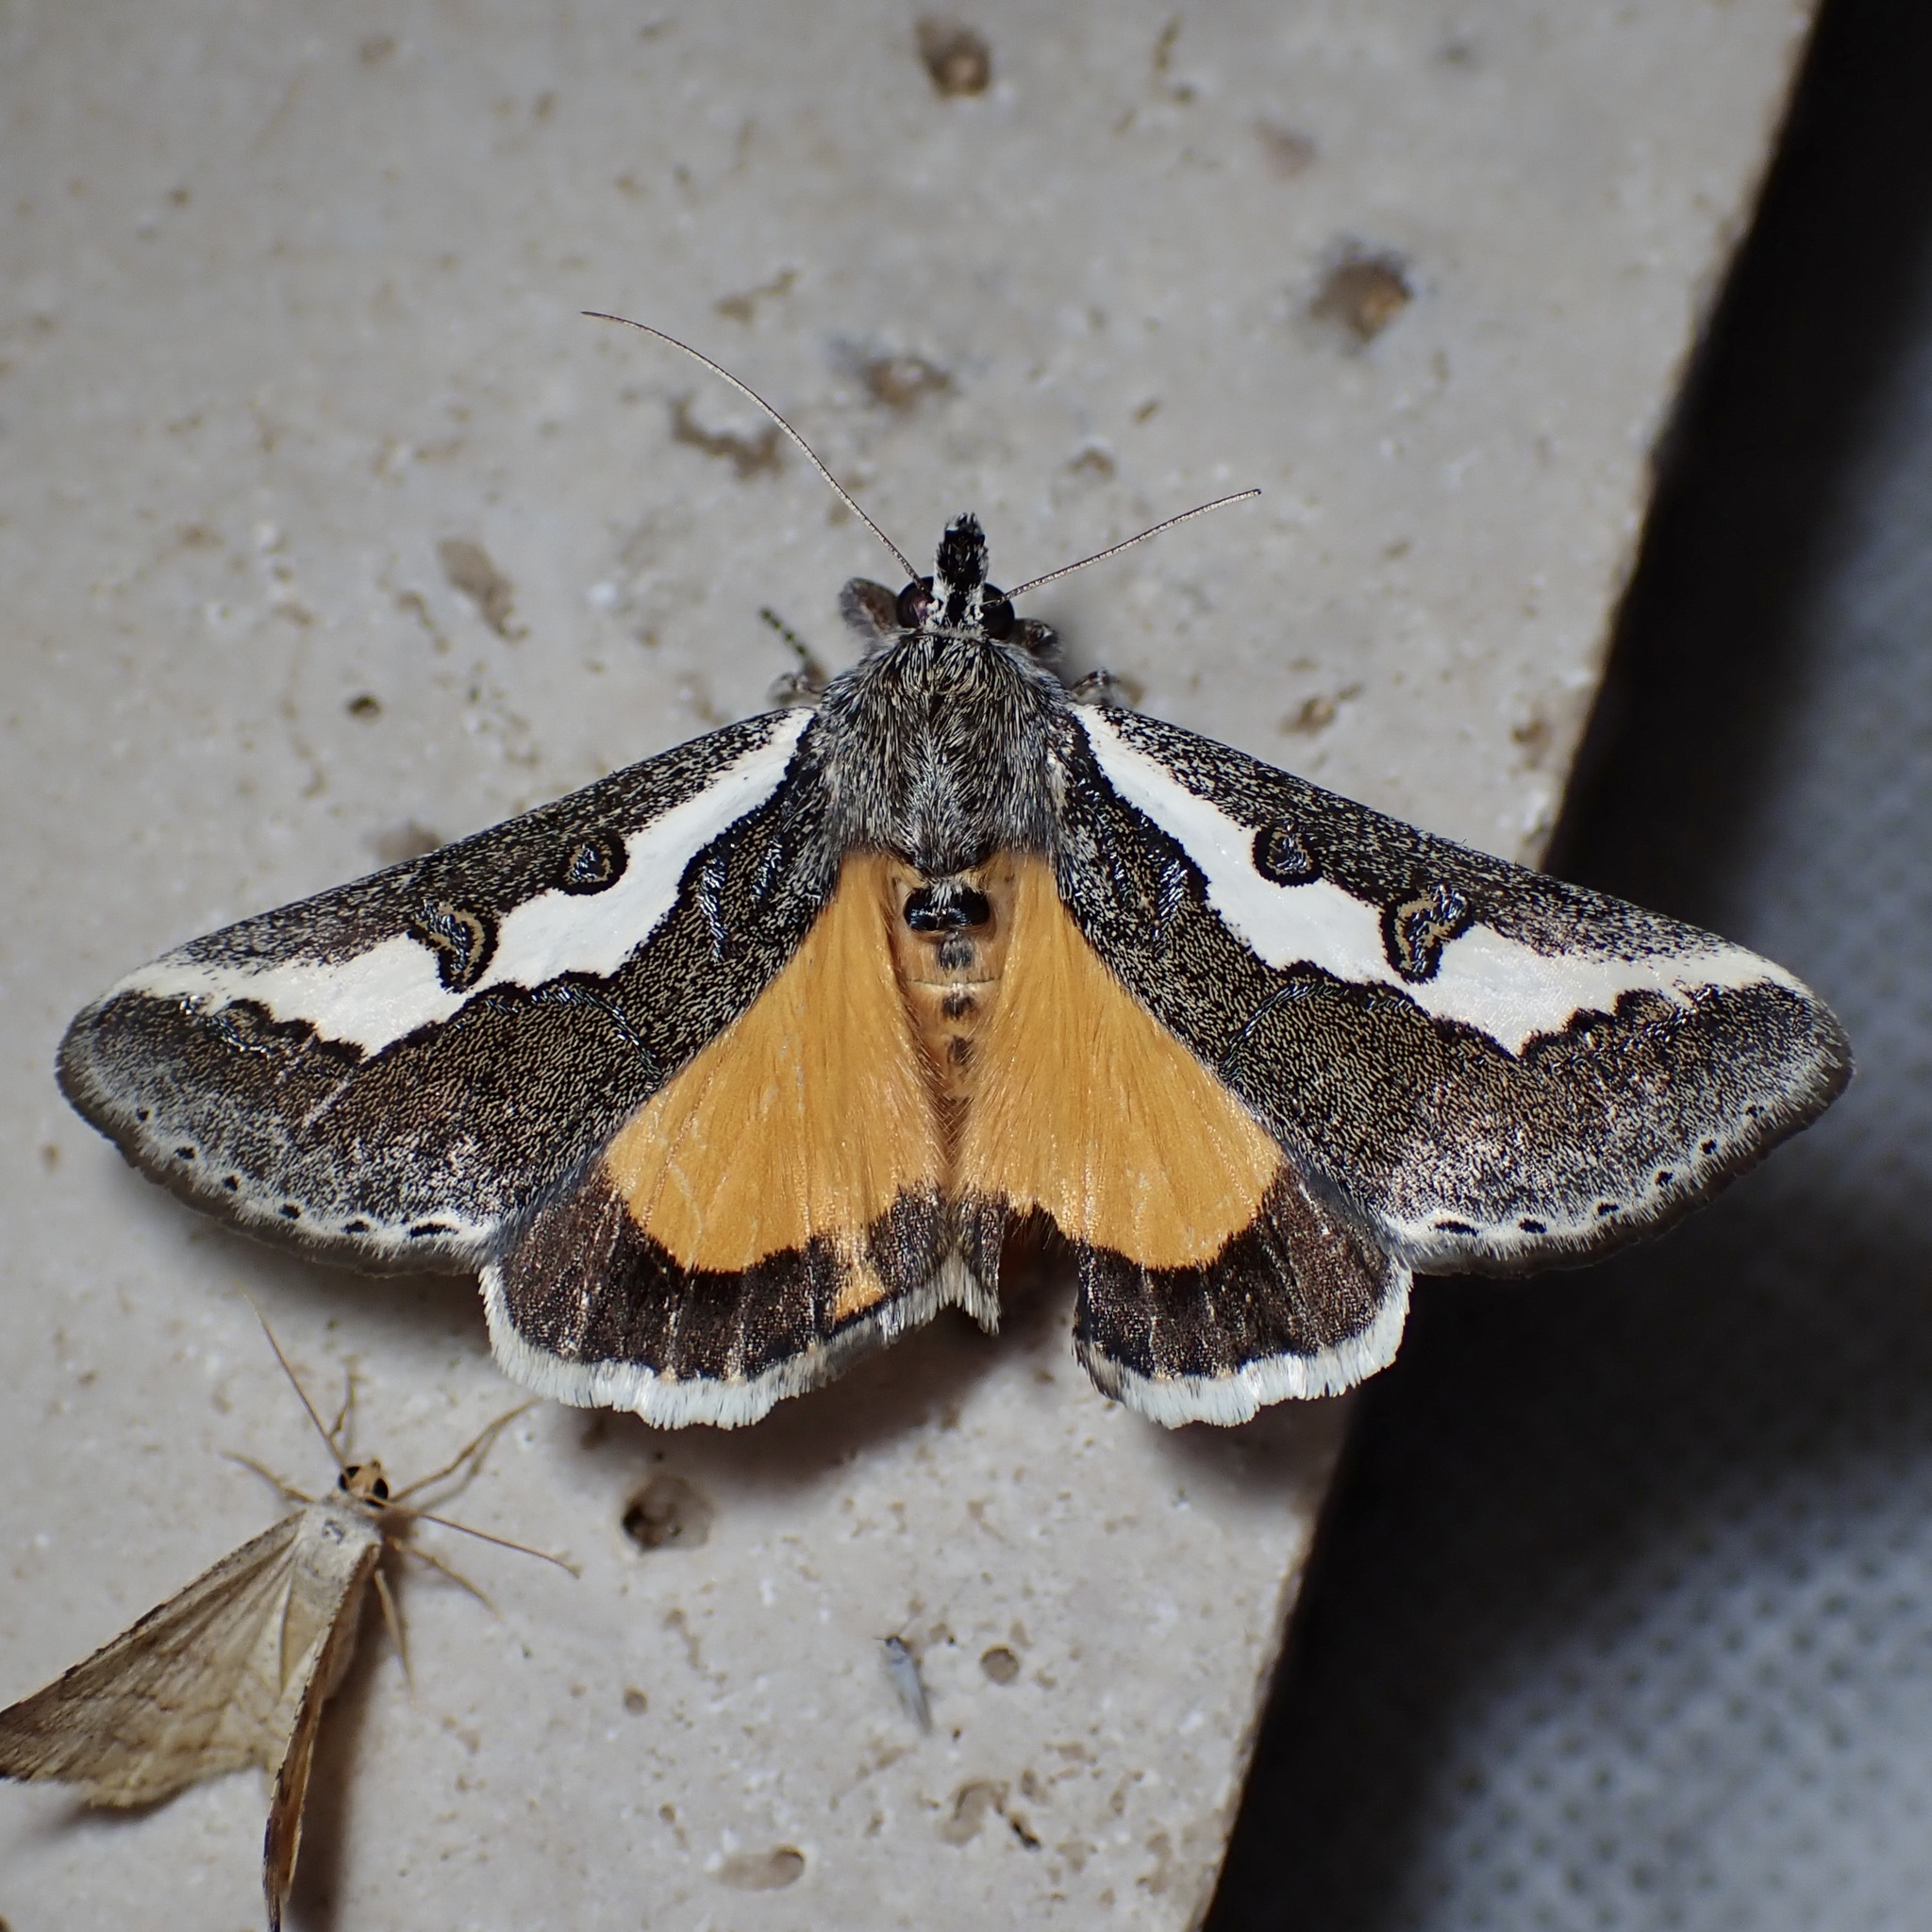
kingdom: Animalia
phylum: Arthropoda
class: Insecta
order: Lepidoptera
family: Noctuidae
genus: Euscirrhopterus
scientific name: Euscirrhopterus cosyra
